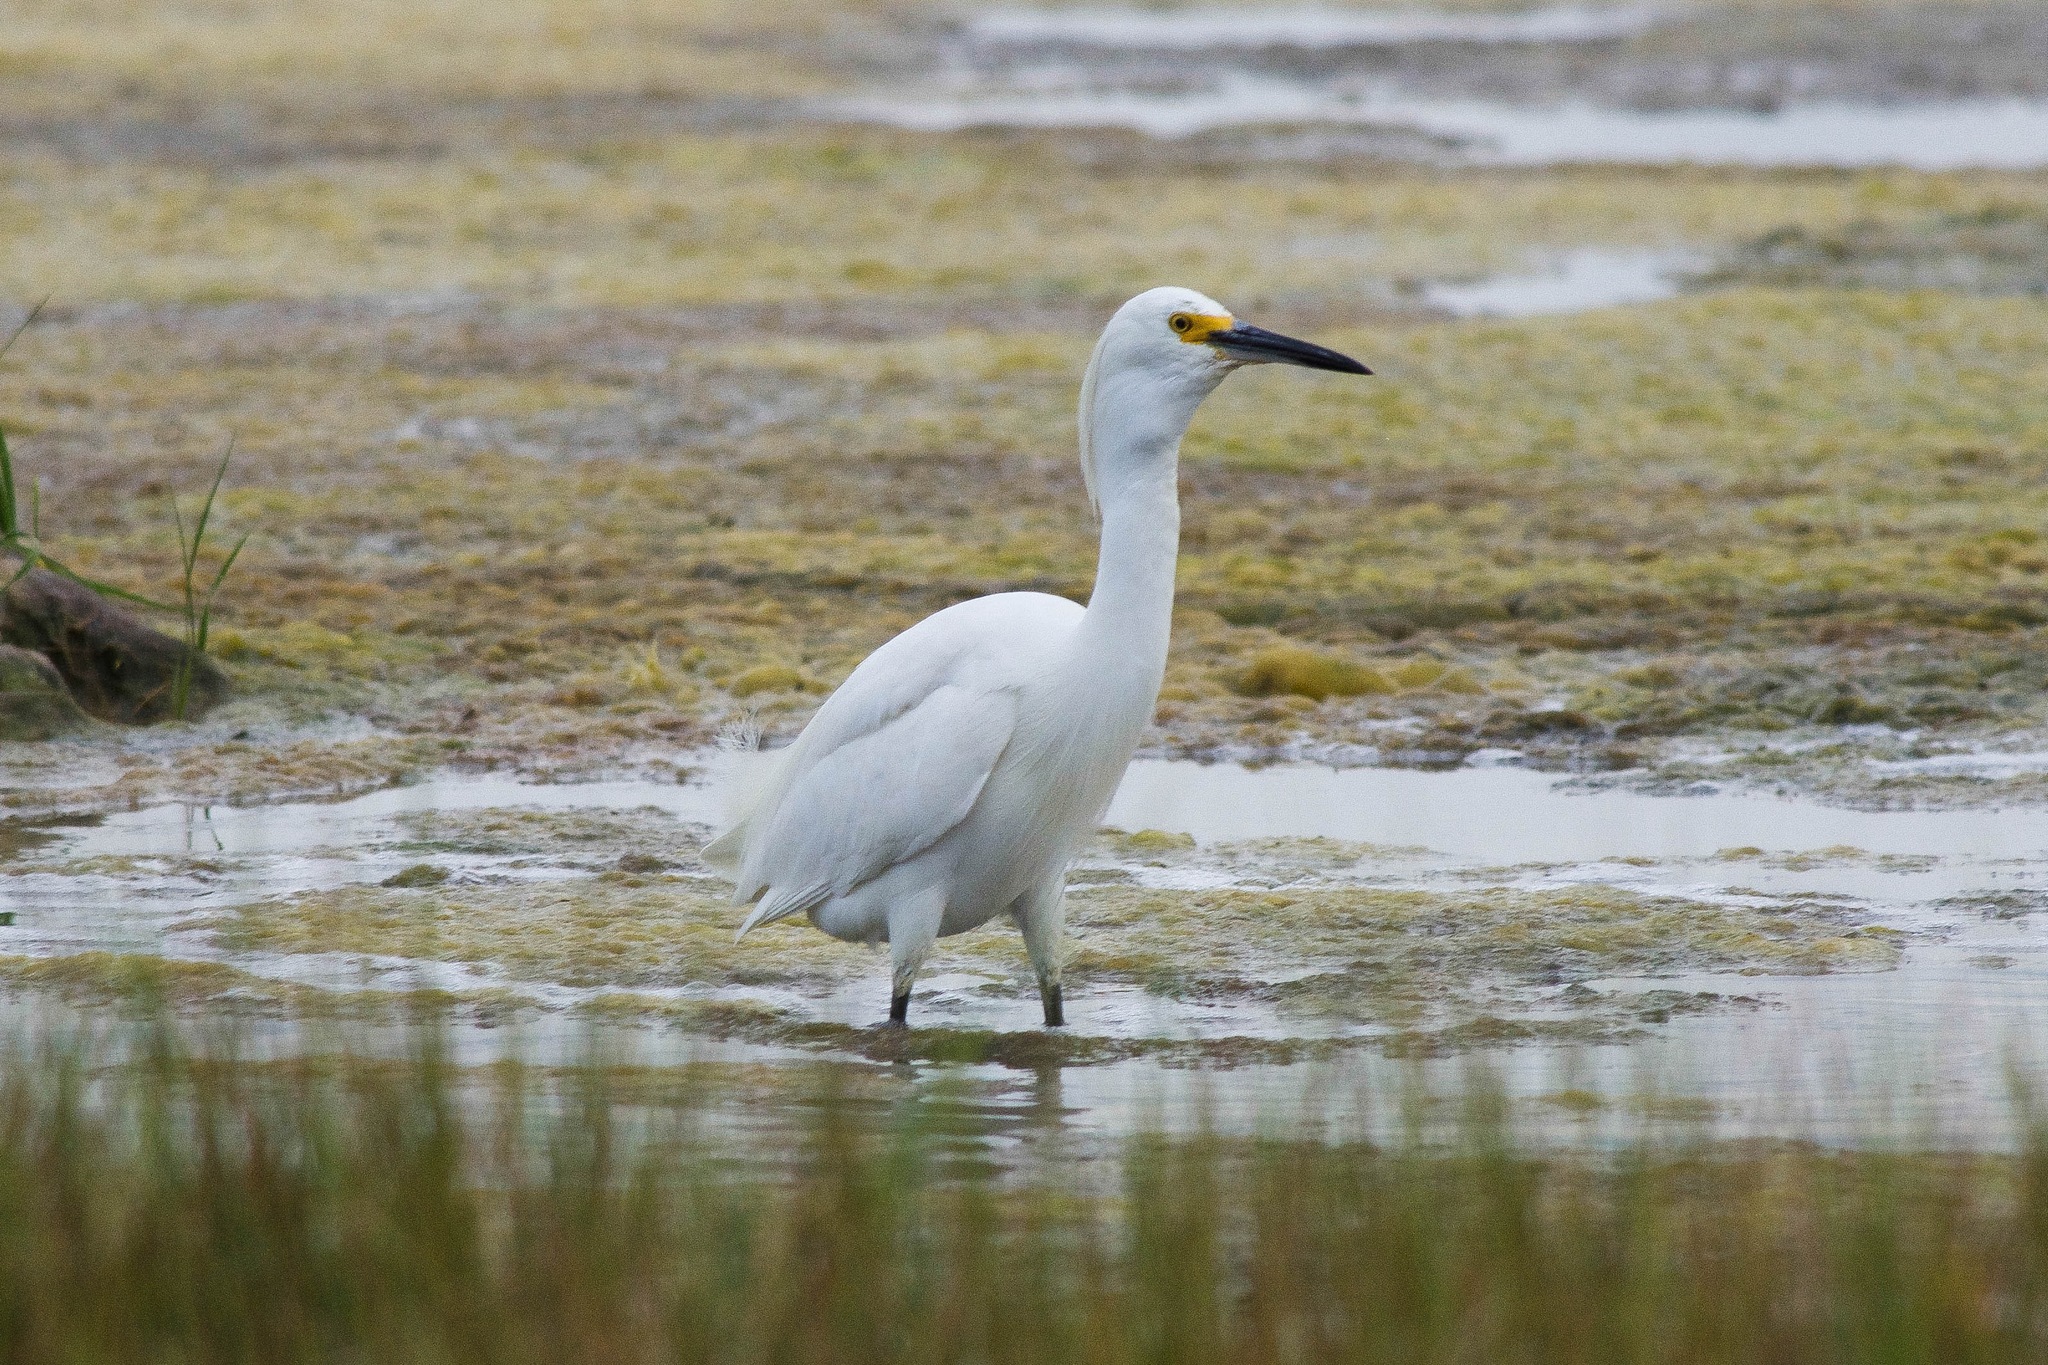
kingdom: Animalia
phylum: Chordata
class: Aves
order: Pelecaniformes
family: Ardeidae
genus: Egretta
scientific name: Egretta thula
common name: Snowy egret
